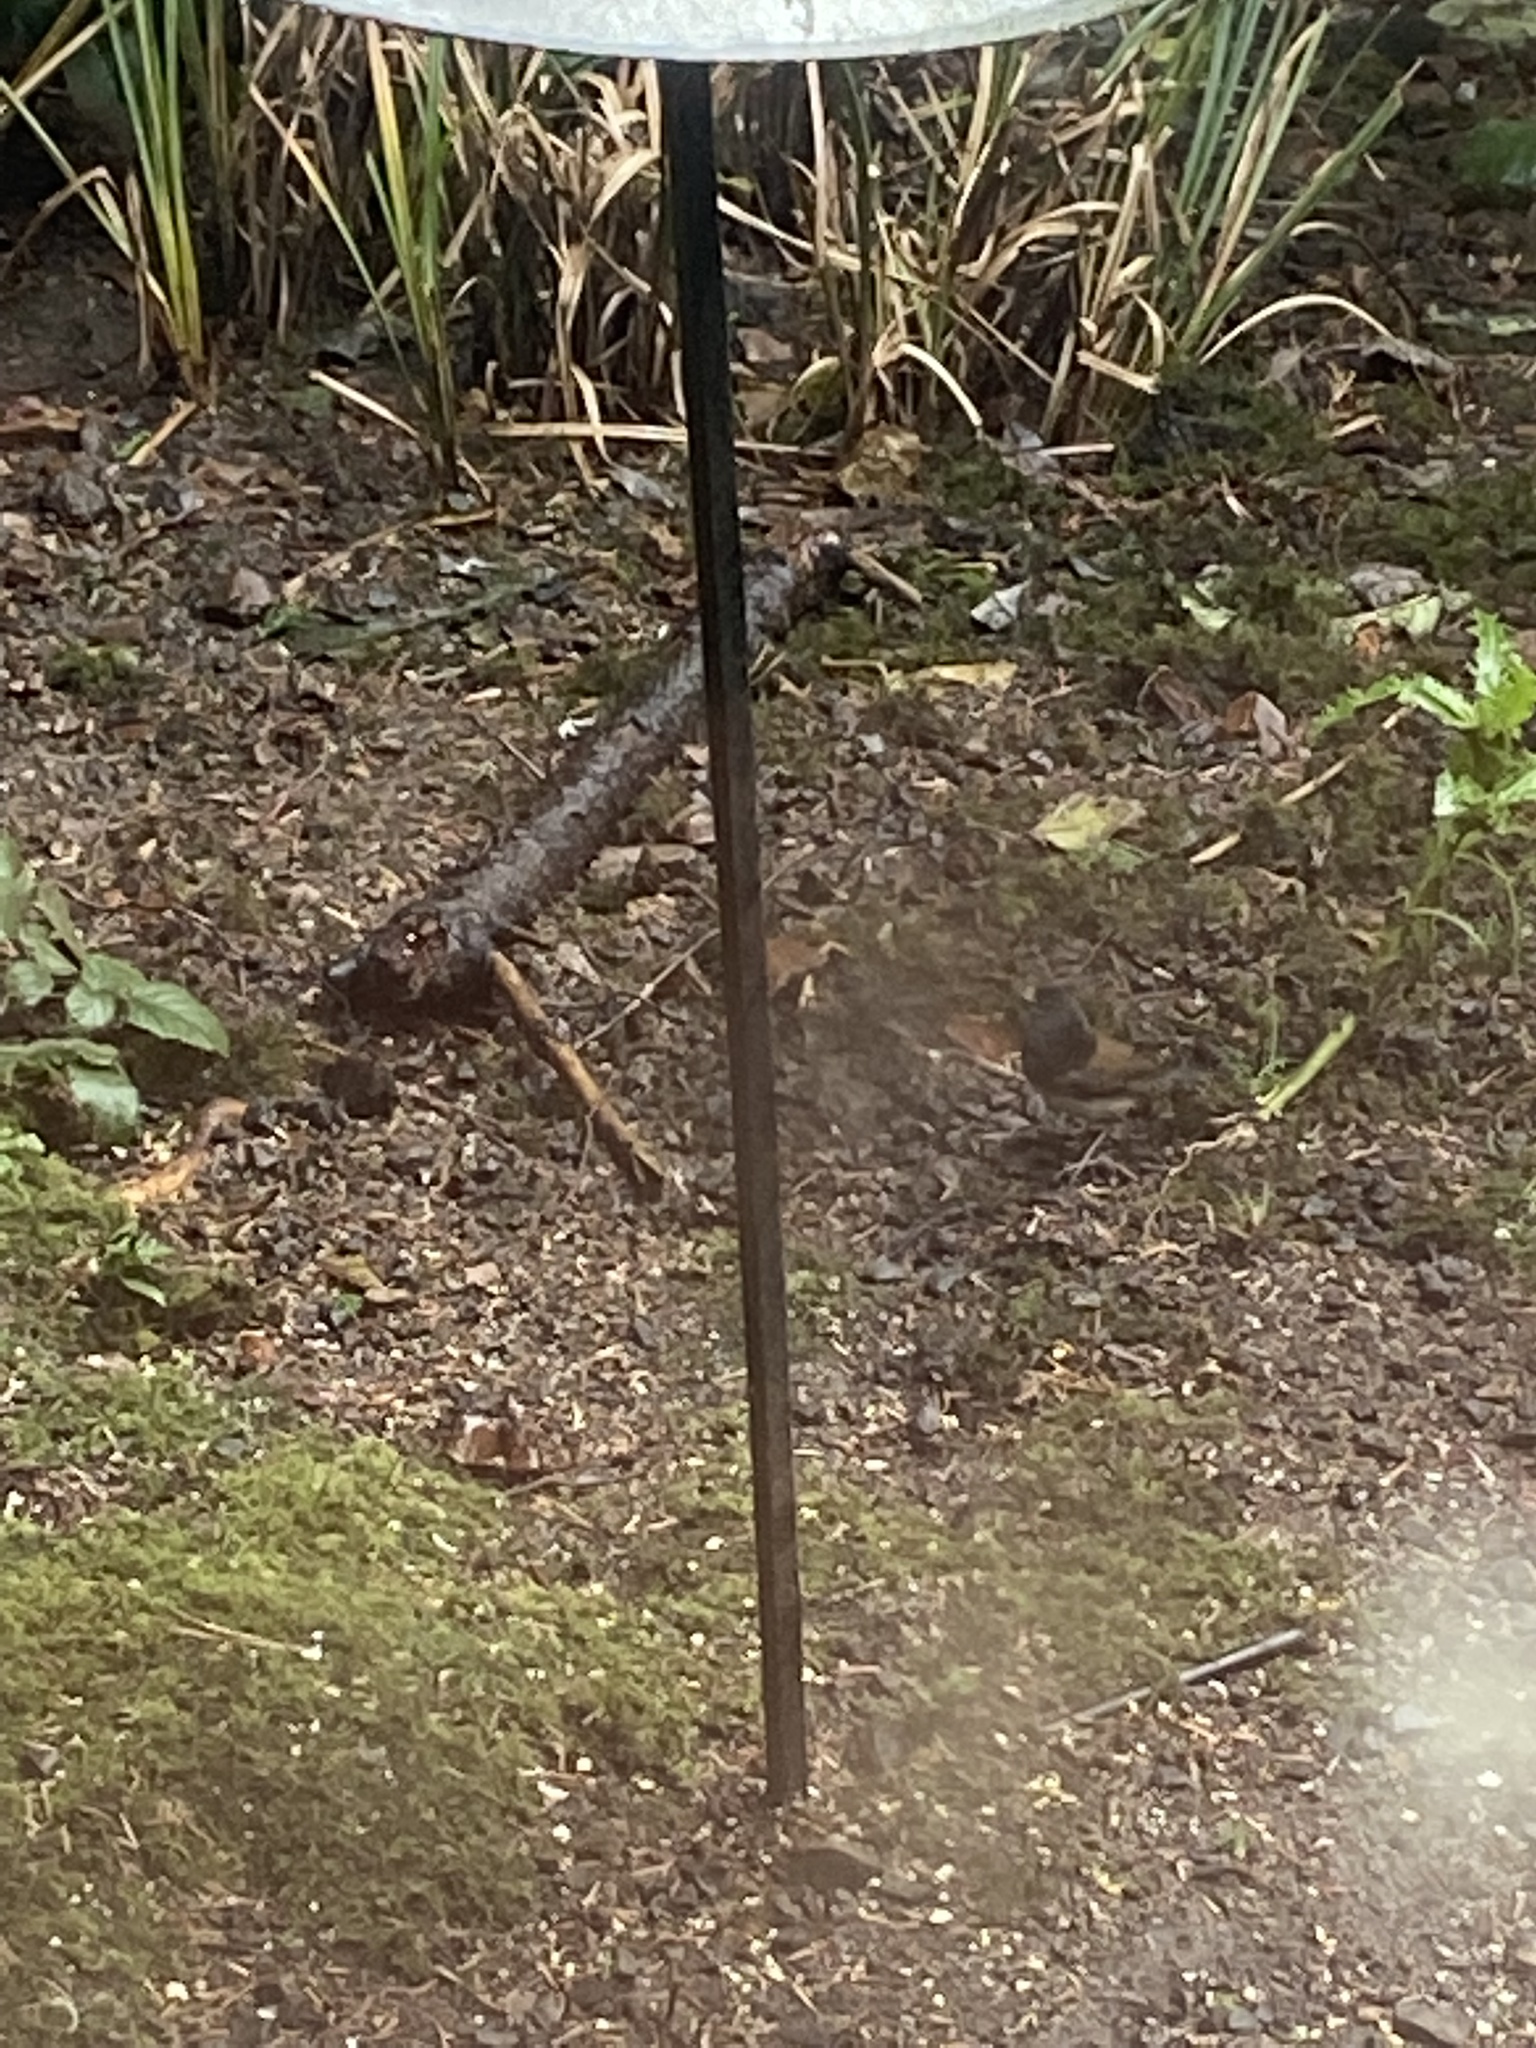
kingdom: Animalia
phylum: Chordata
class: Aves
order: Passeriformes
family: Passerellidae
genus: Junco
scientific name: Junco hyemalis
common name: Dark-eyed junco
